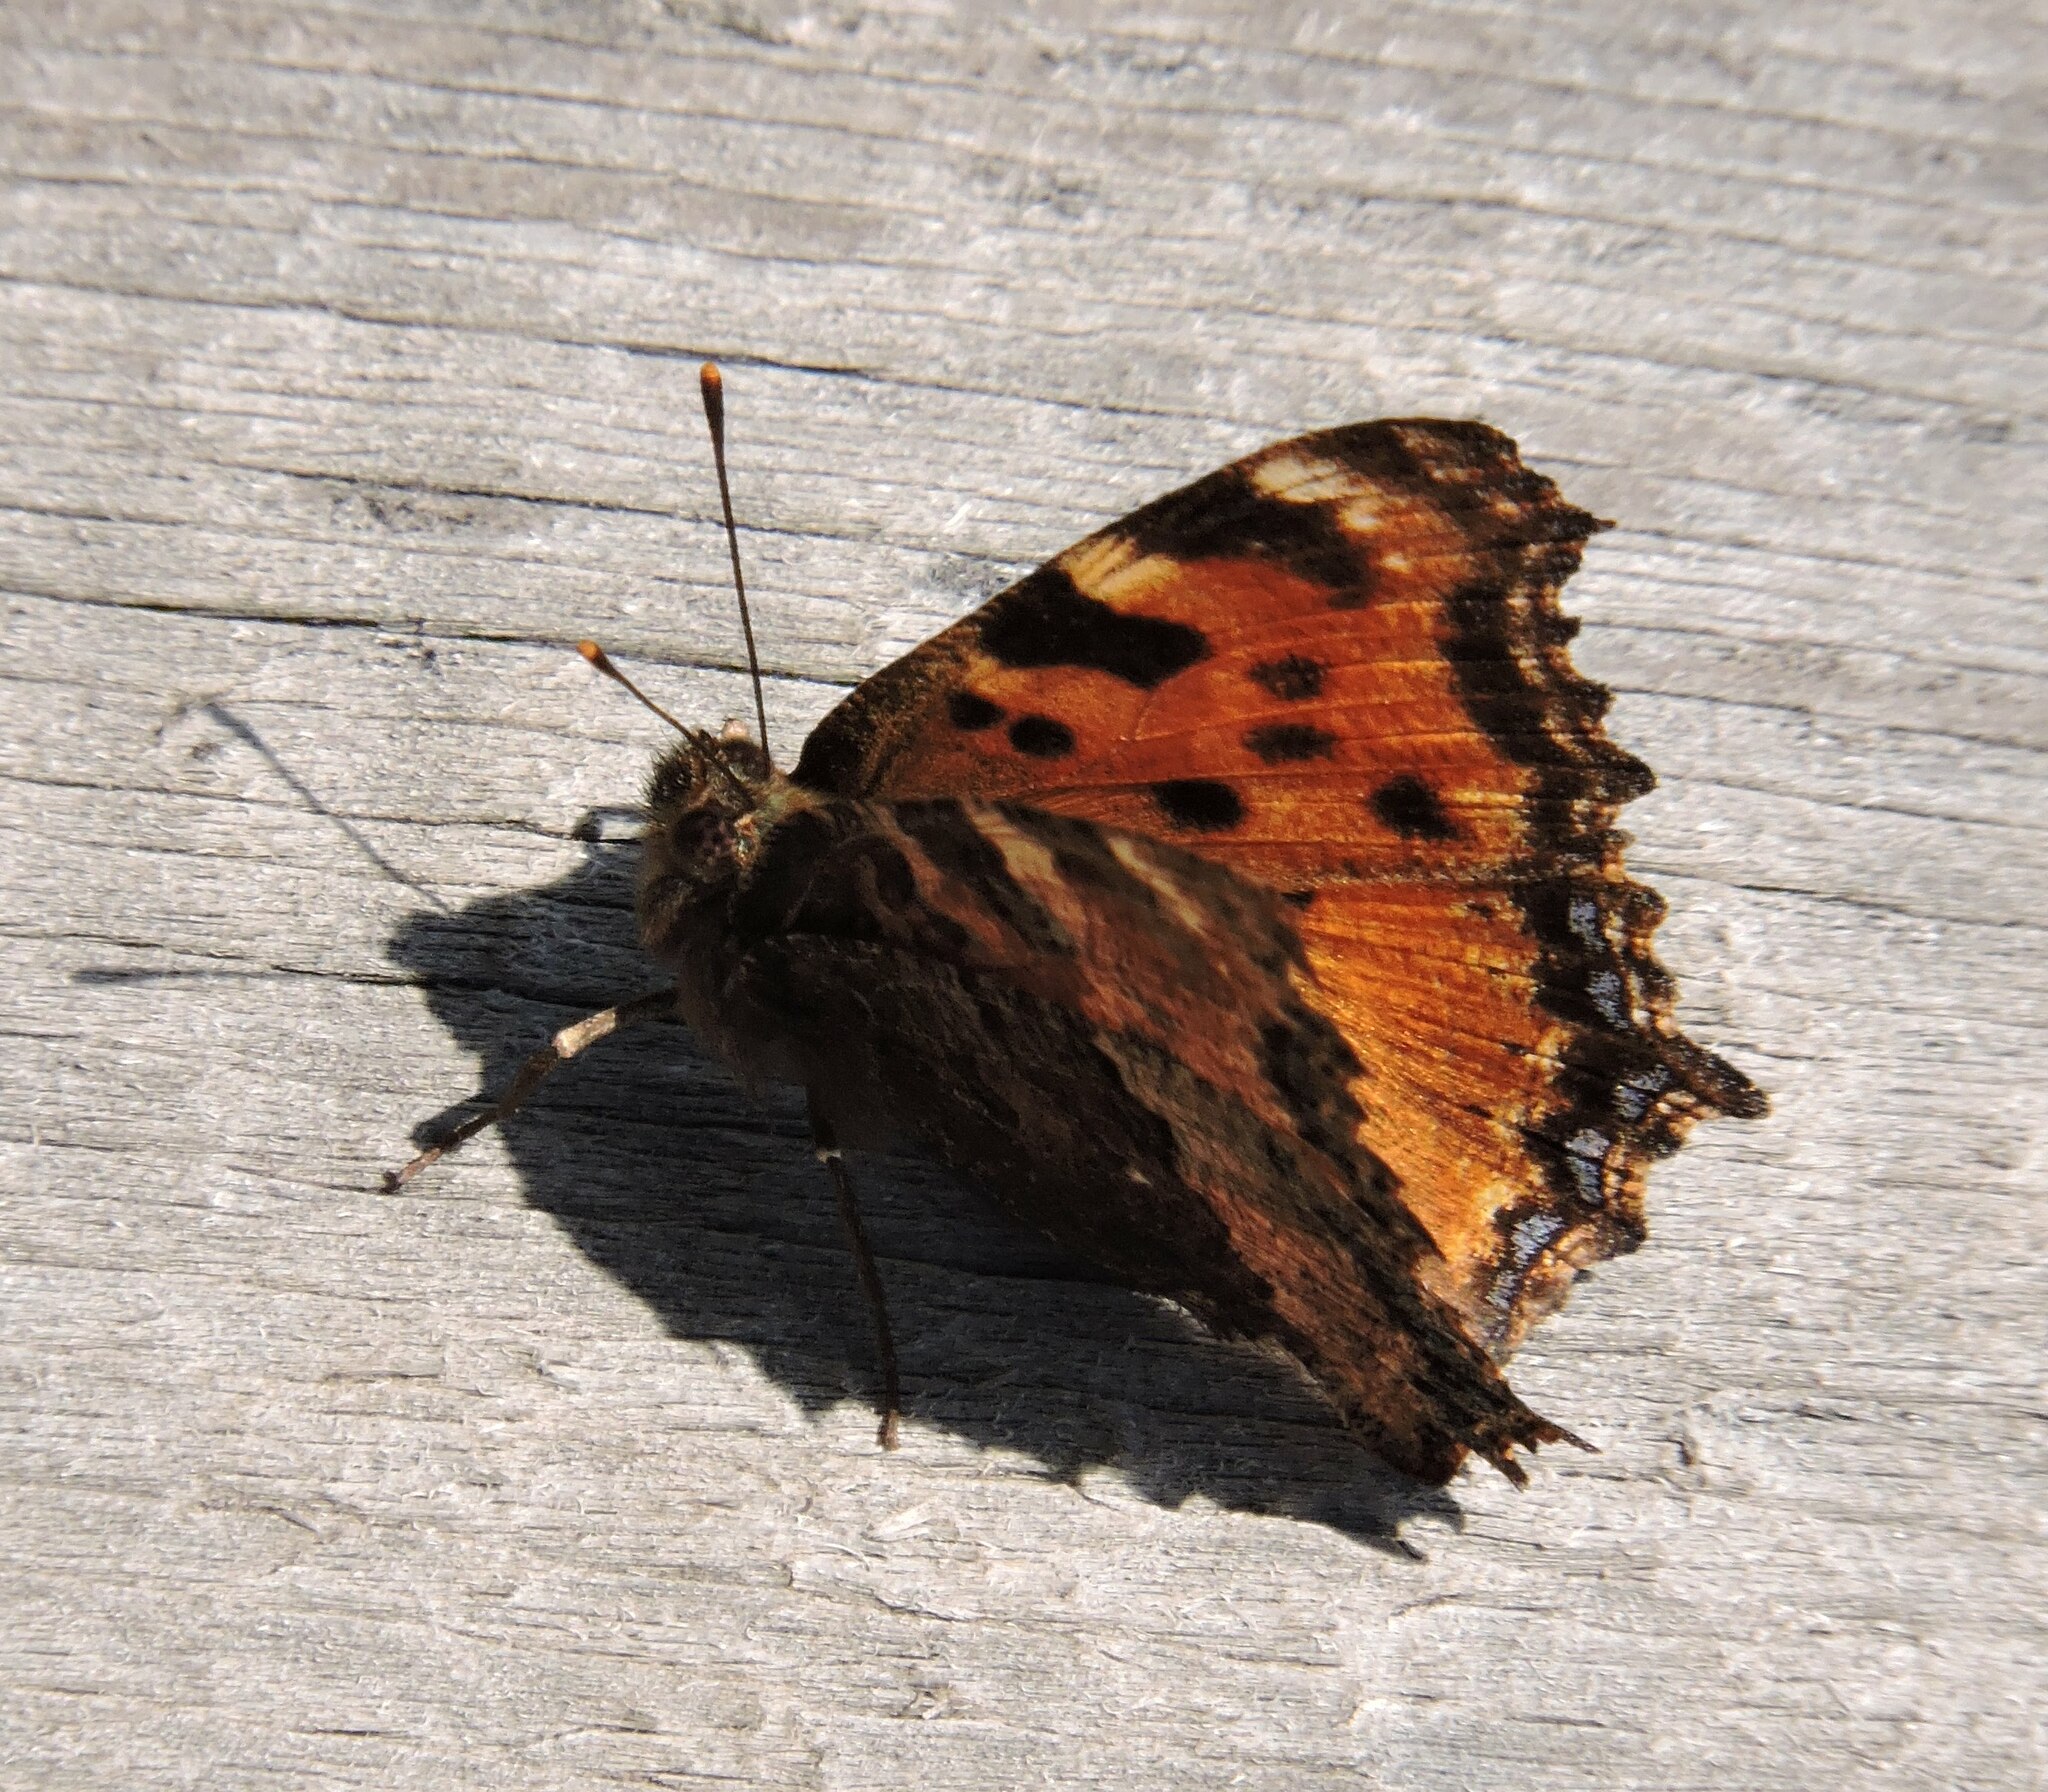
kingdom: Animalia
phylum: Arthropoda
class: Insecta
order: Lepidoptera
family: Nymphalidae
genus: Nymphalis
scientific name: Nymphalis polychloros
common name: Large tortoiseshell
